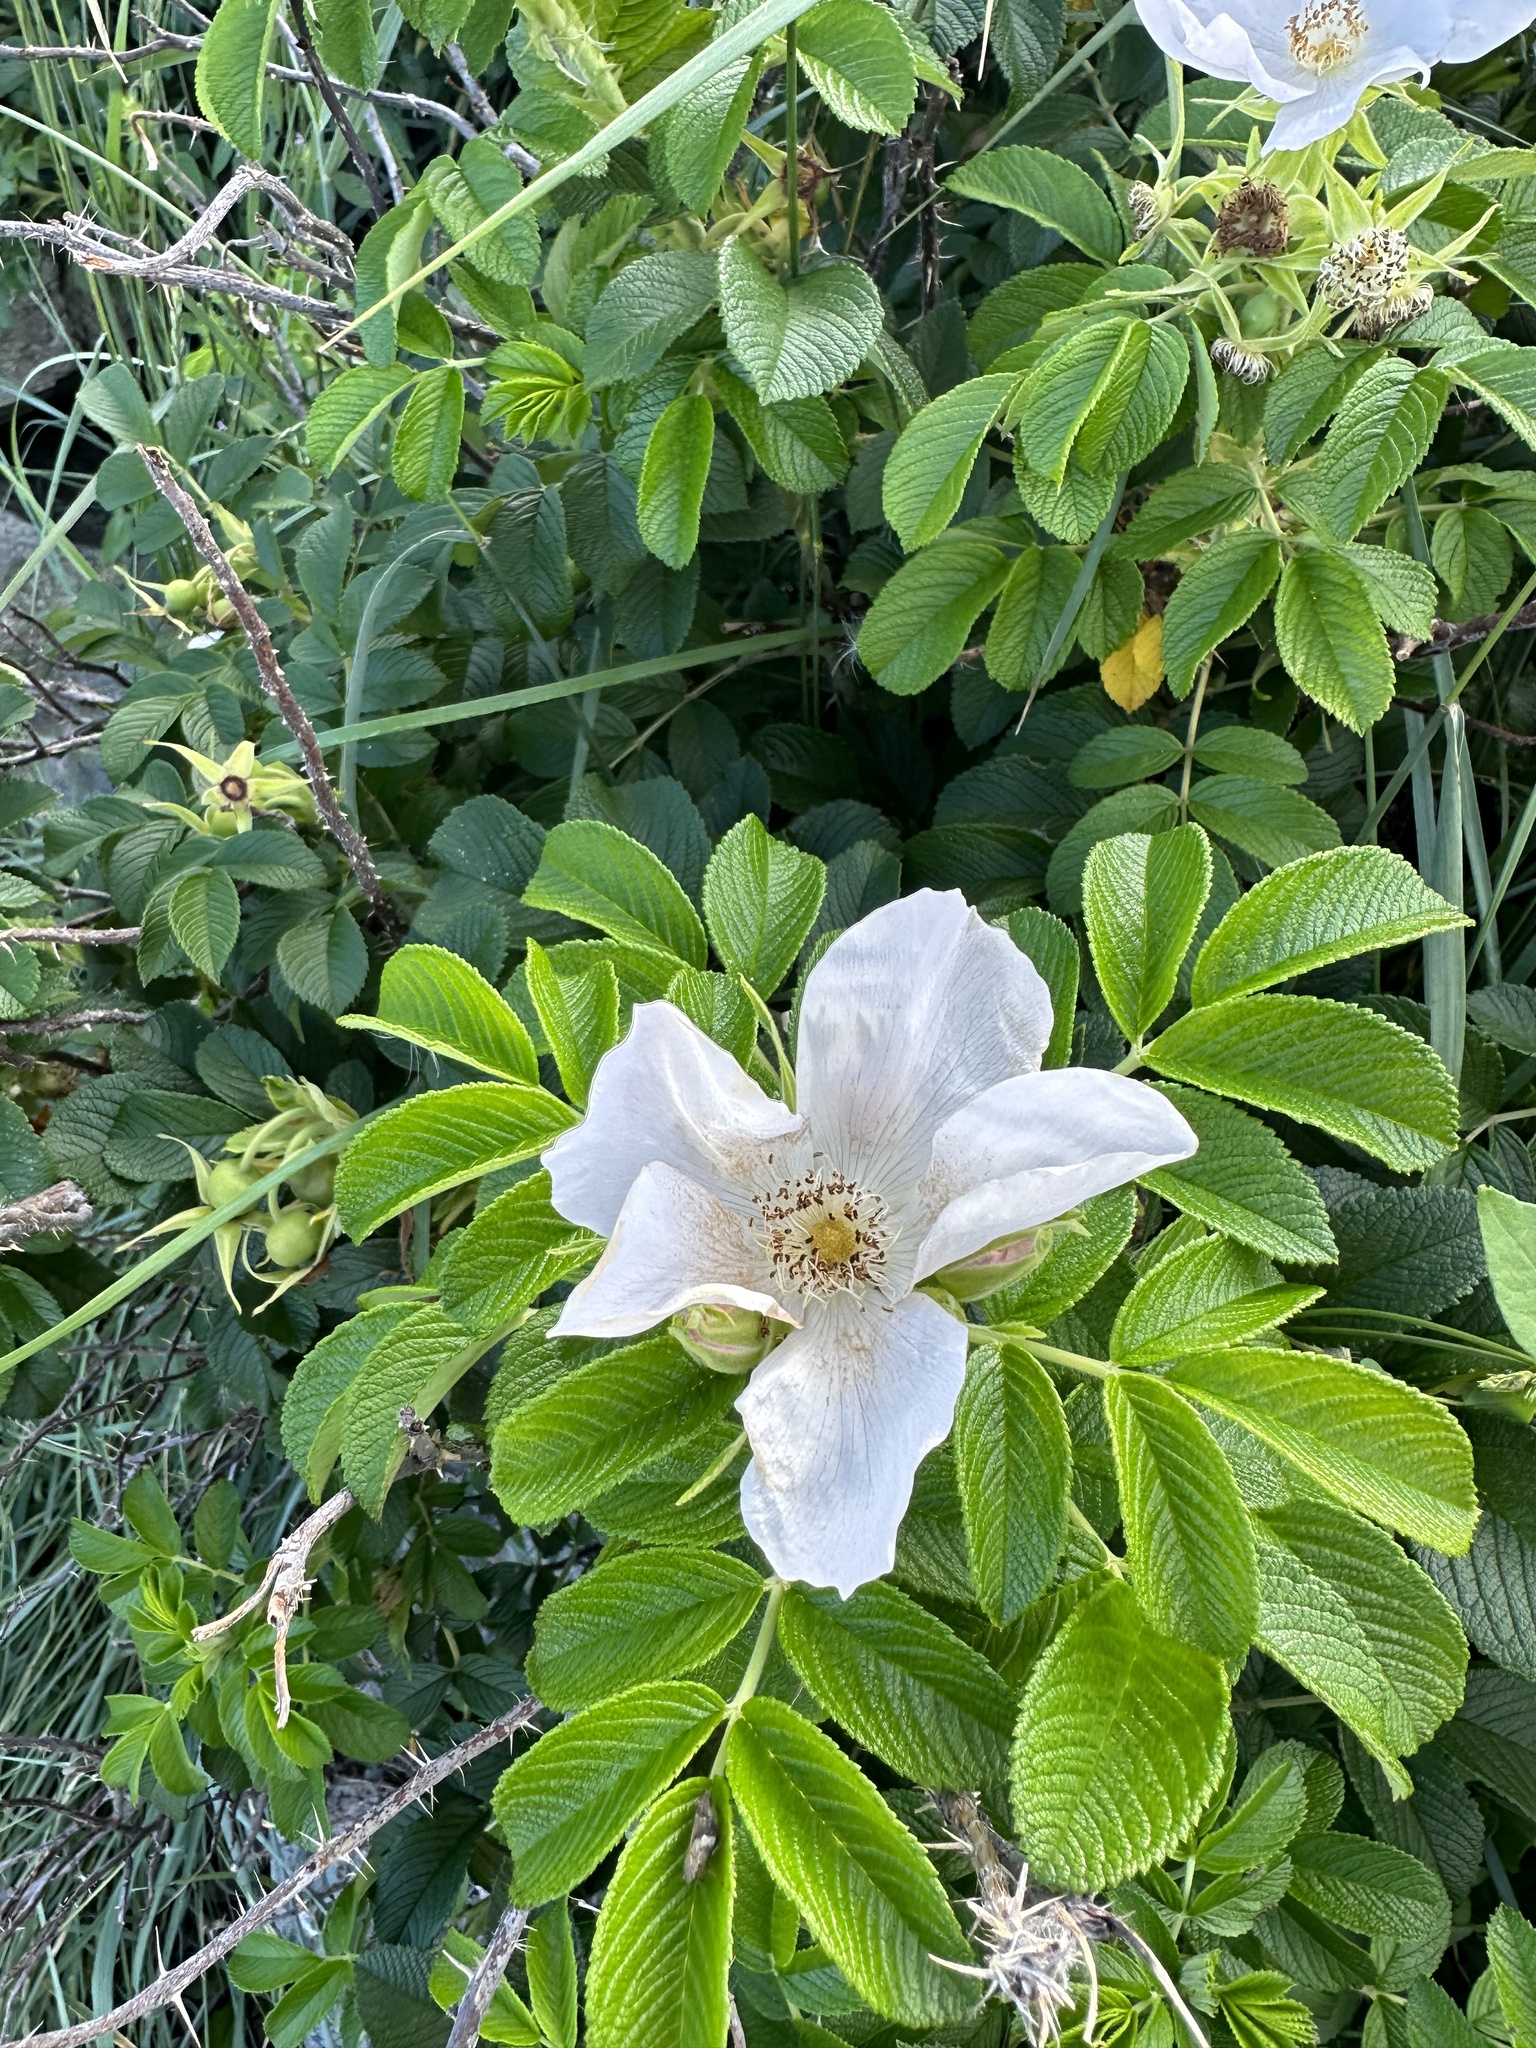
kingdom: Plantae
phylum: Tracheophyta
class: Magnoliopsida
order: Rosales
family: Rosaceae
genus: Rosa
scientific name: Rosa rugosa
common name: Japanese rose
